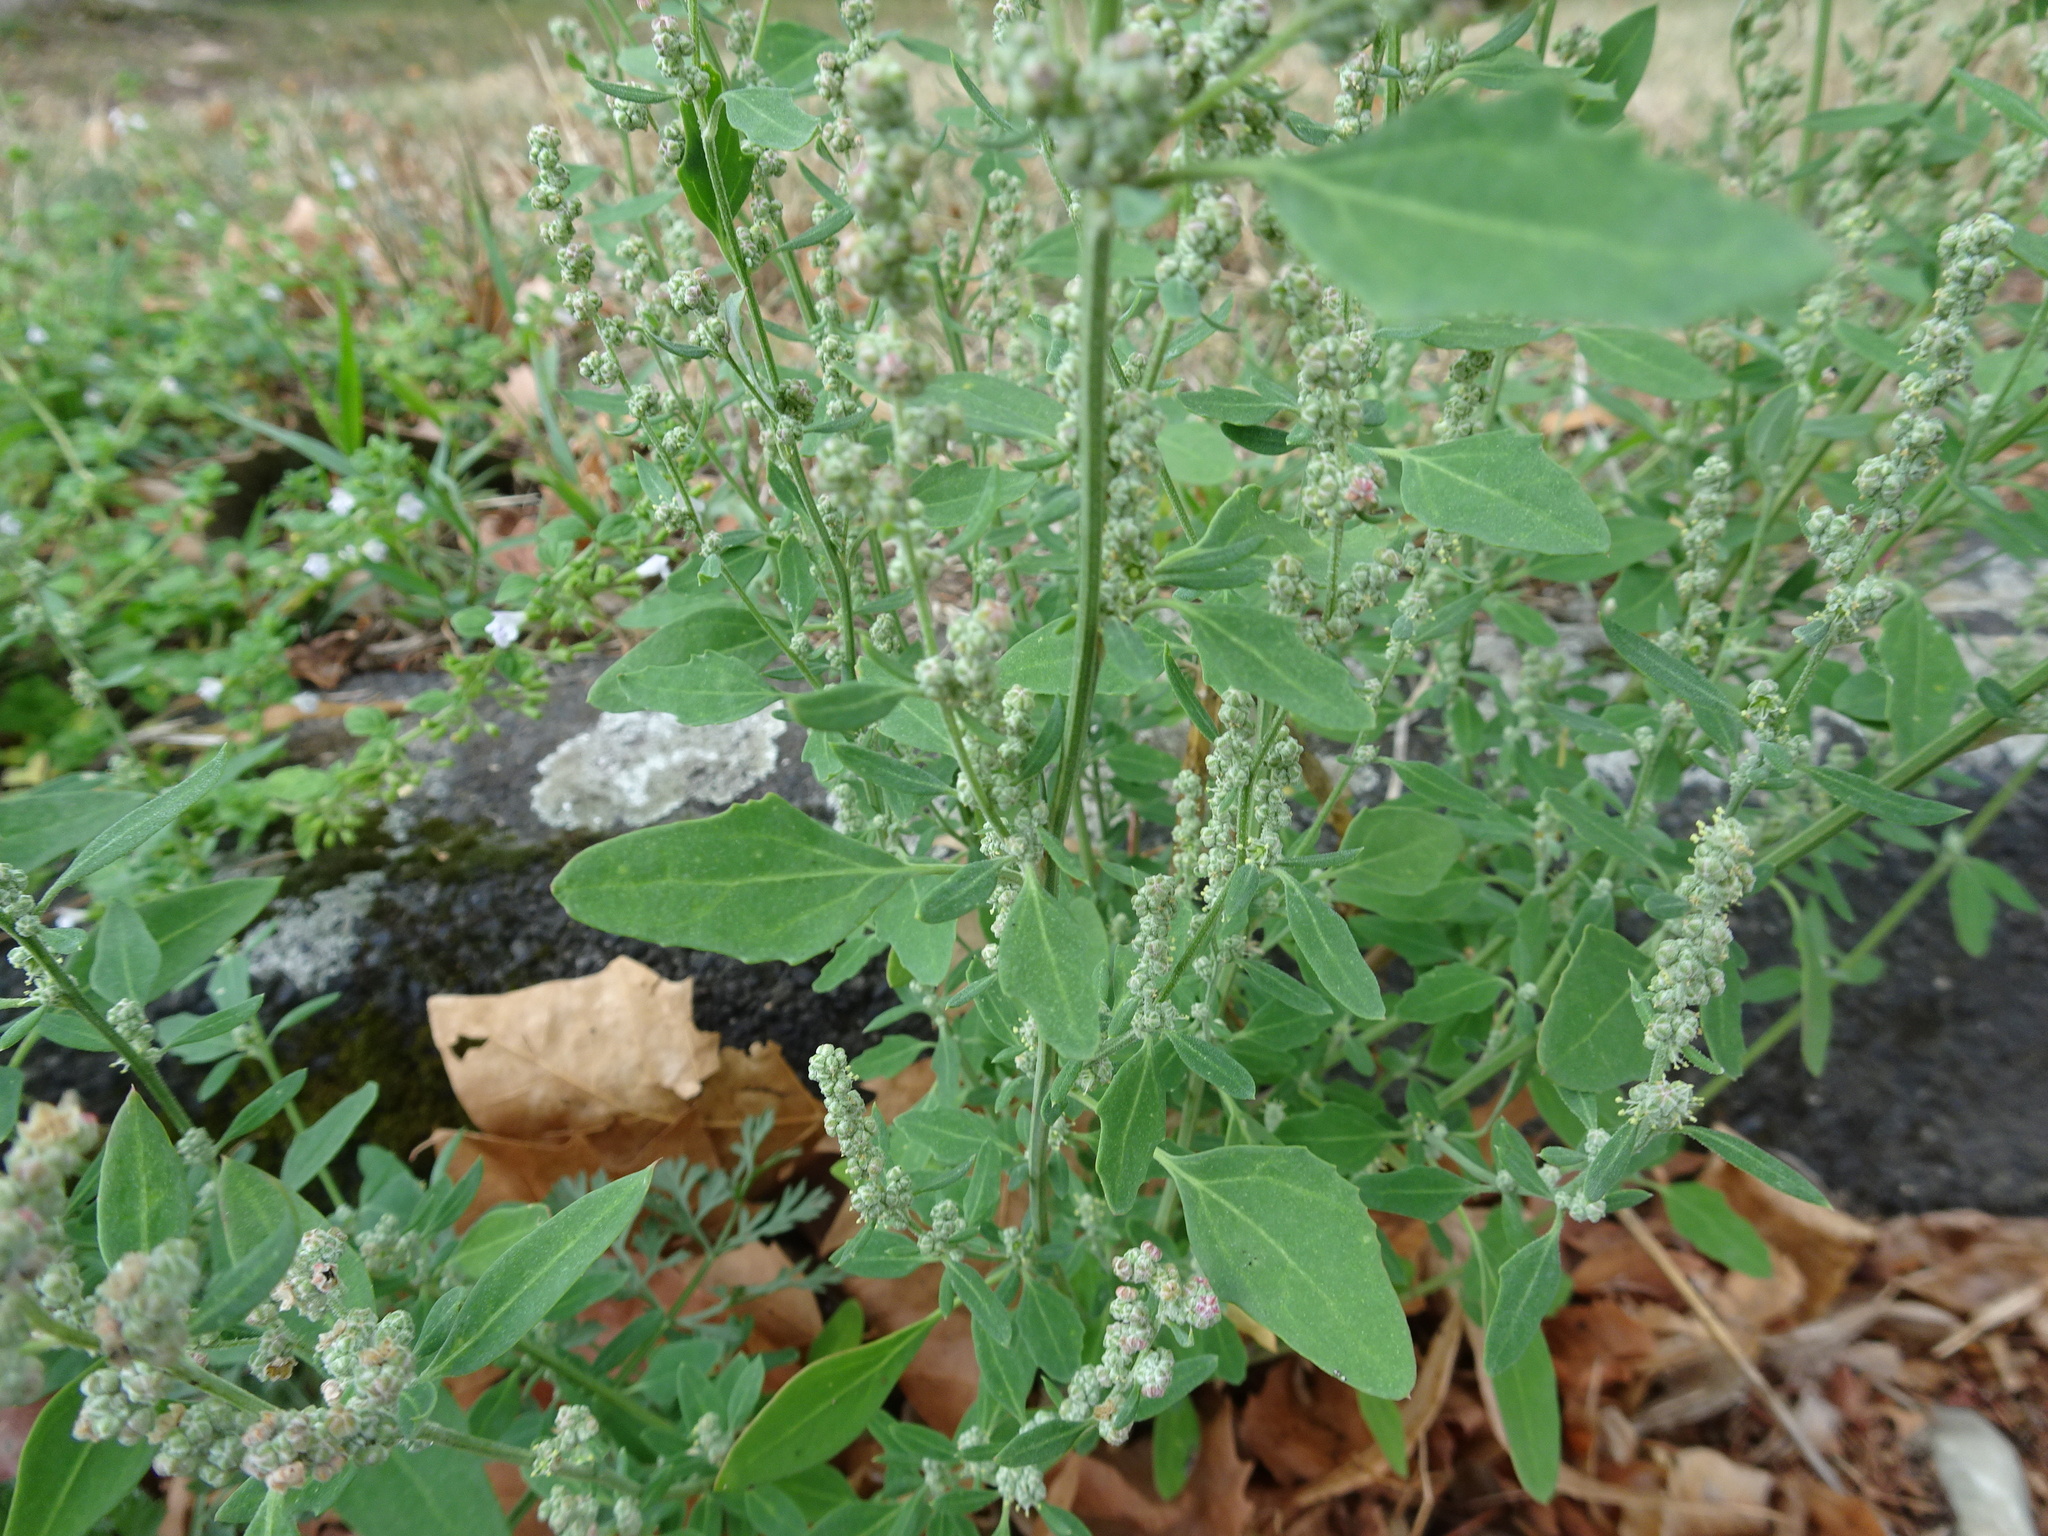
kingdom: Plantae
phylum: Tracheophyta
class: Magnoliopsida
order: Caryophyllales
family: Amaranthaceae
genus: Chenopodium
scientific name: Chenopodium album
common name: Fat-hen
